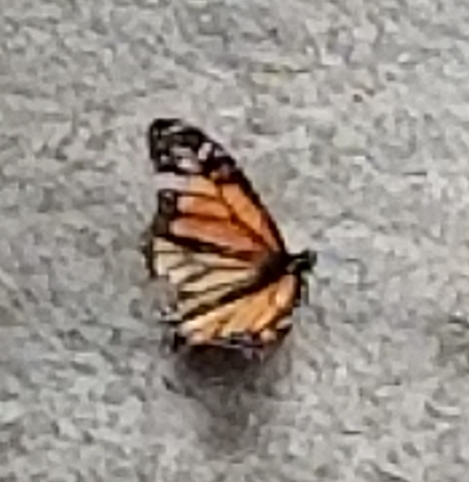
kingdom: Animalia
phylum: Arthropoda
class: Insecta
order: Lepidoptera
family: Nymphalidae
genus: Danaus
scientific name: Danaus plexippus
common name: Monarch
